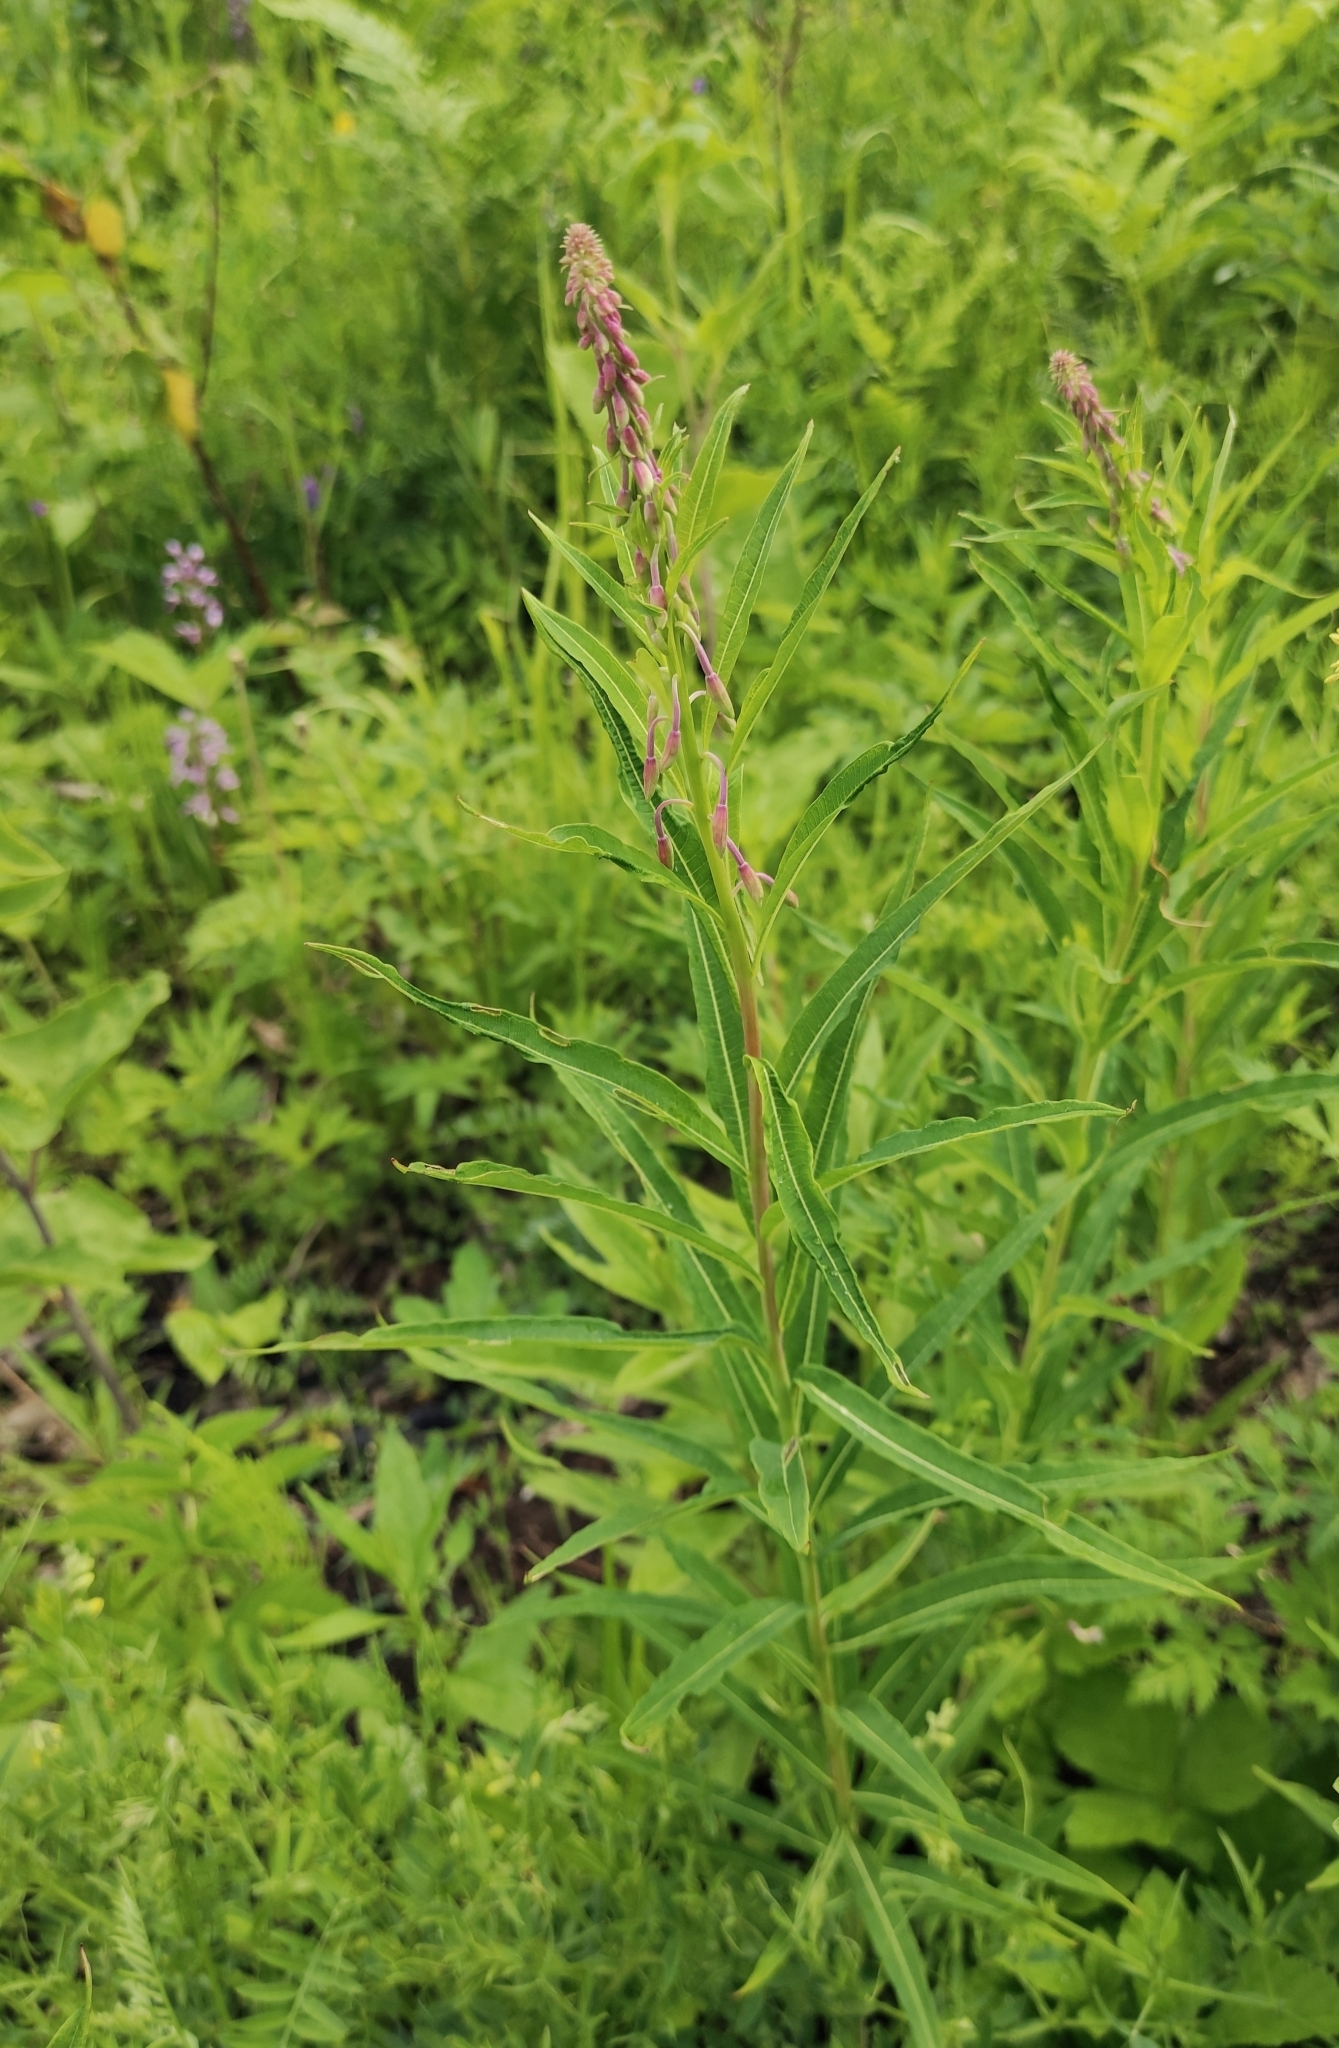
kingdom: Plantae
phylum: Tracheophyta
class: Magnoliopsida
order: Myrtales
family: Onagraceae
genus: Chamaenerion
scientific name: Chamaenerion angustifolium
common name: Fireweed
